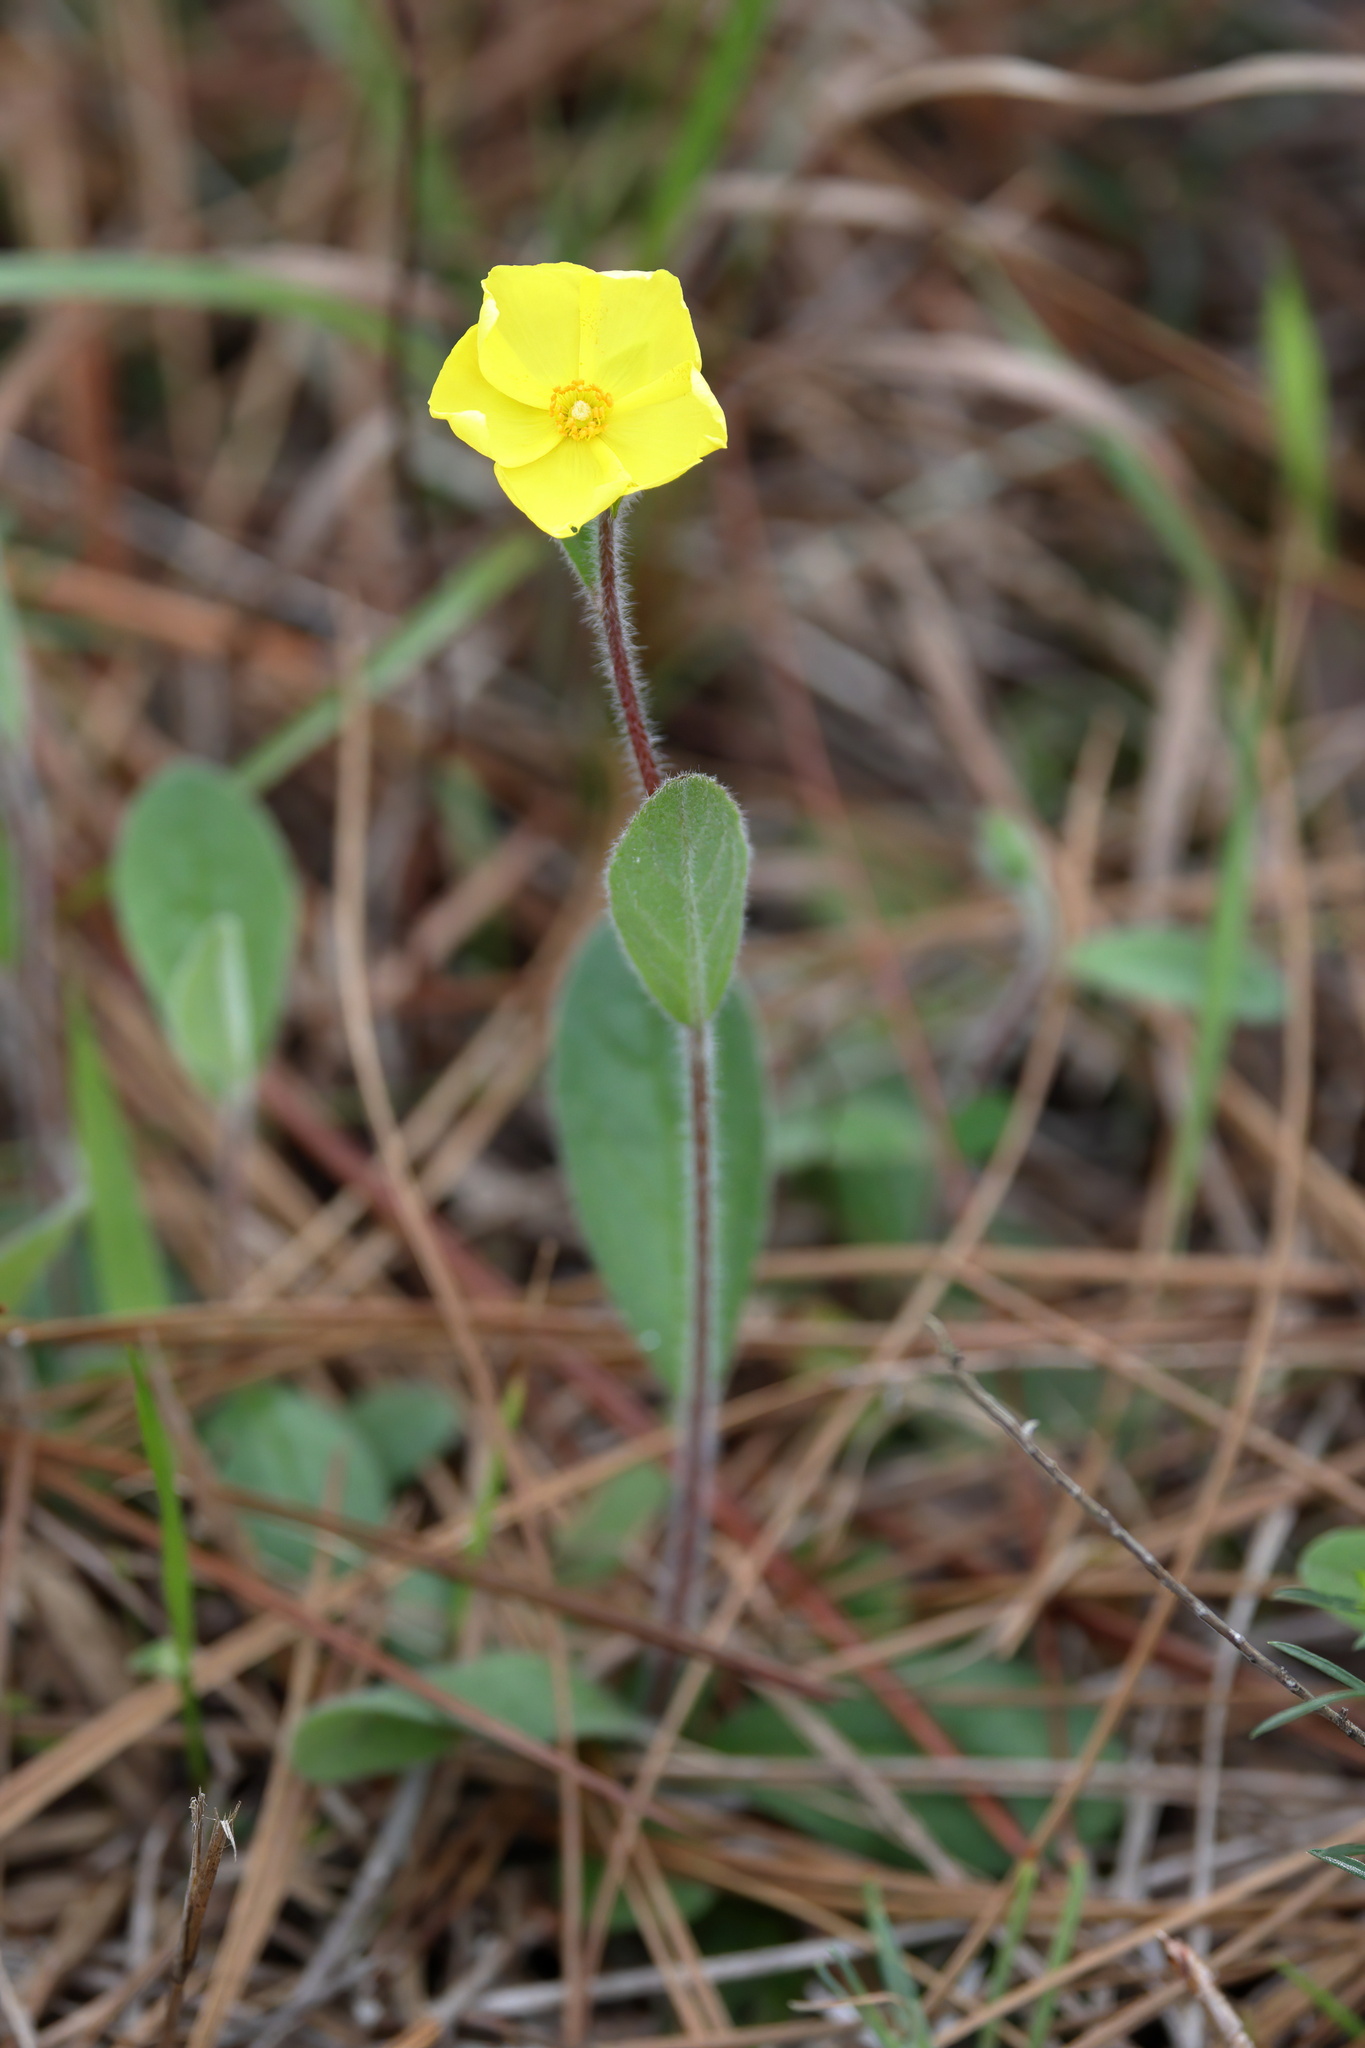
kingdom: Plantae
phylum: Tracheophyta
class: Magnoliopsida
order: Malvales
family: Cistaceae
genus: Crocanthemum
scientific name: Crocanthemum carolinianum
